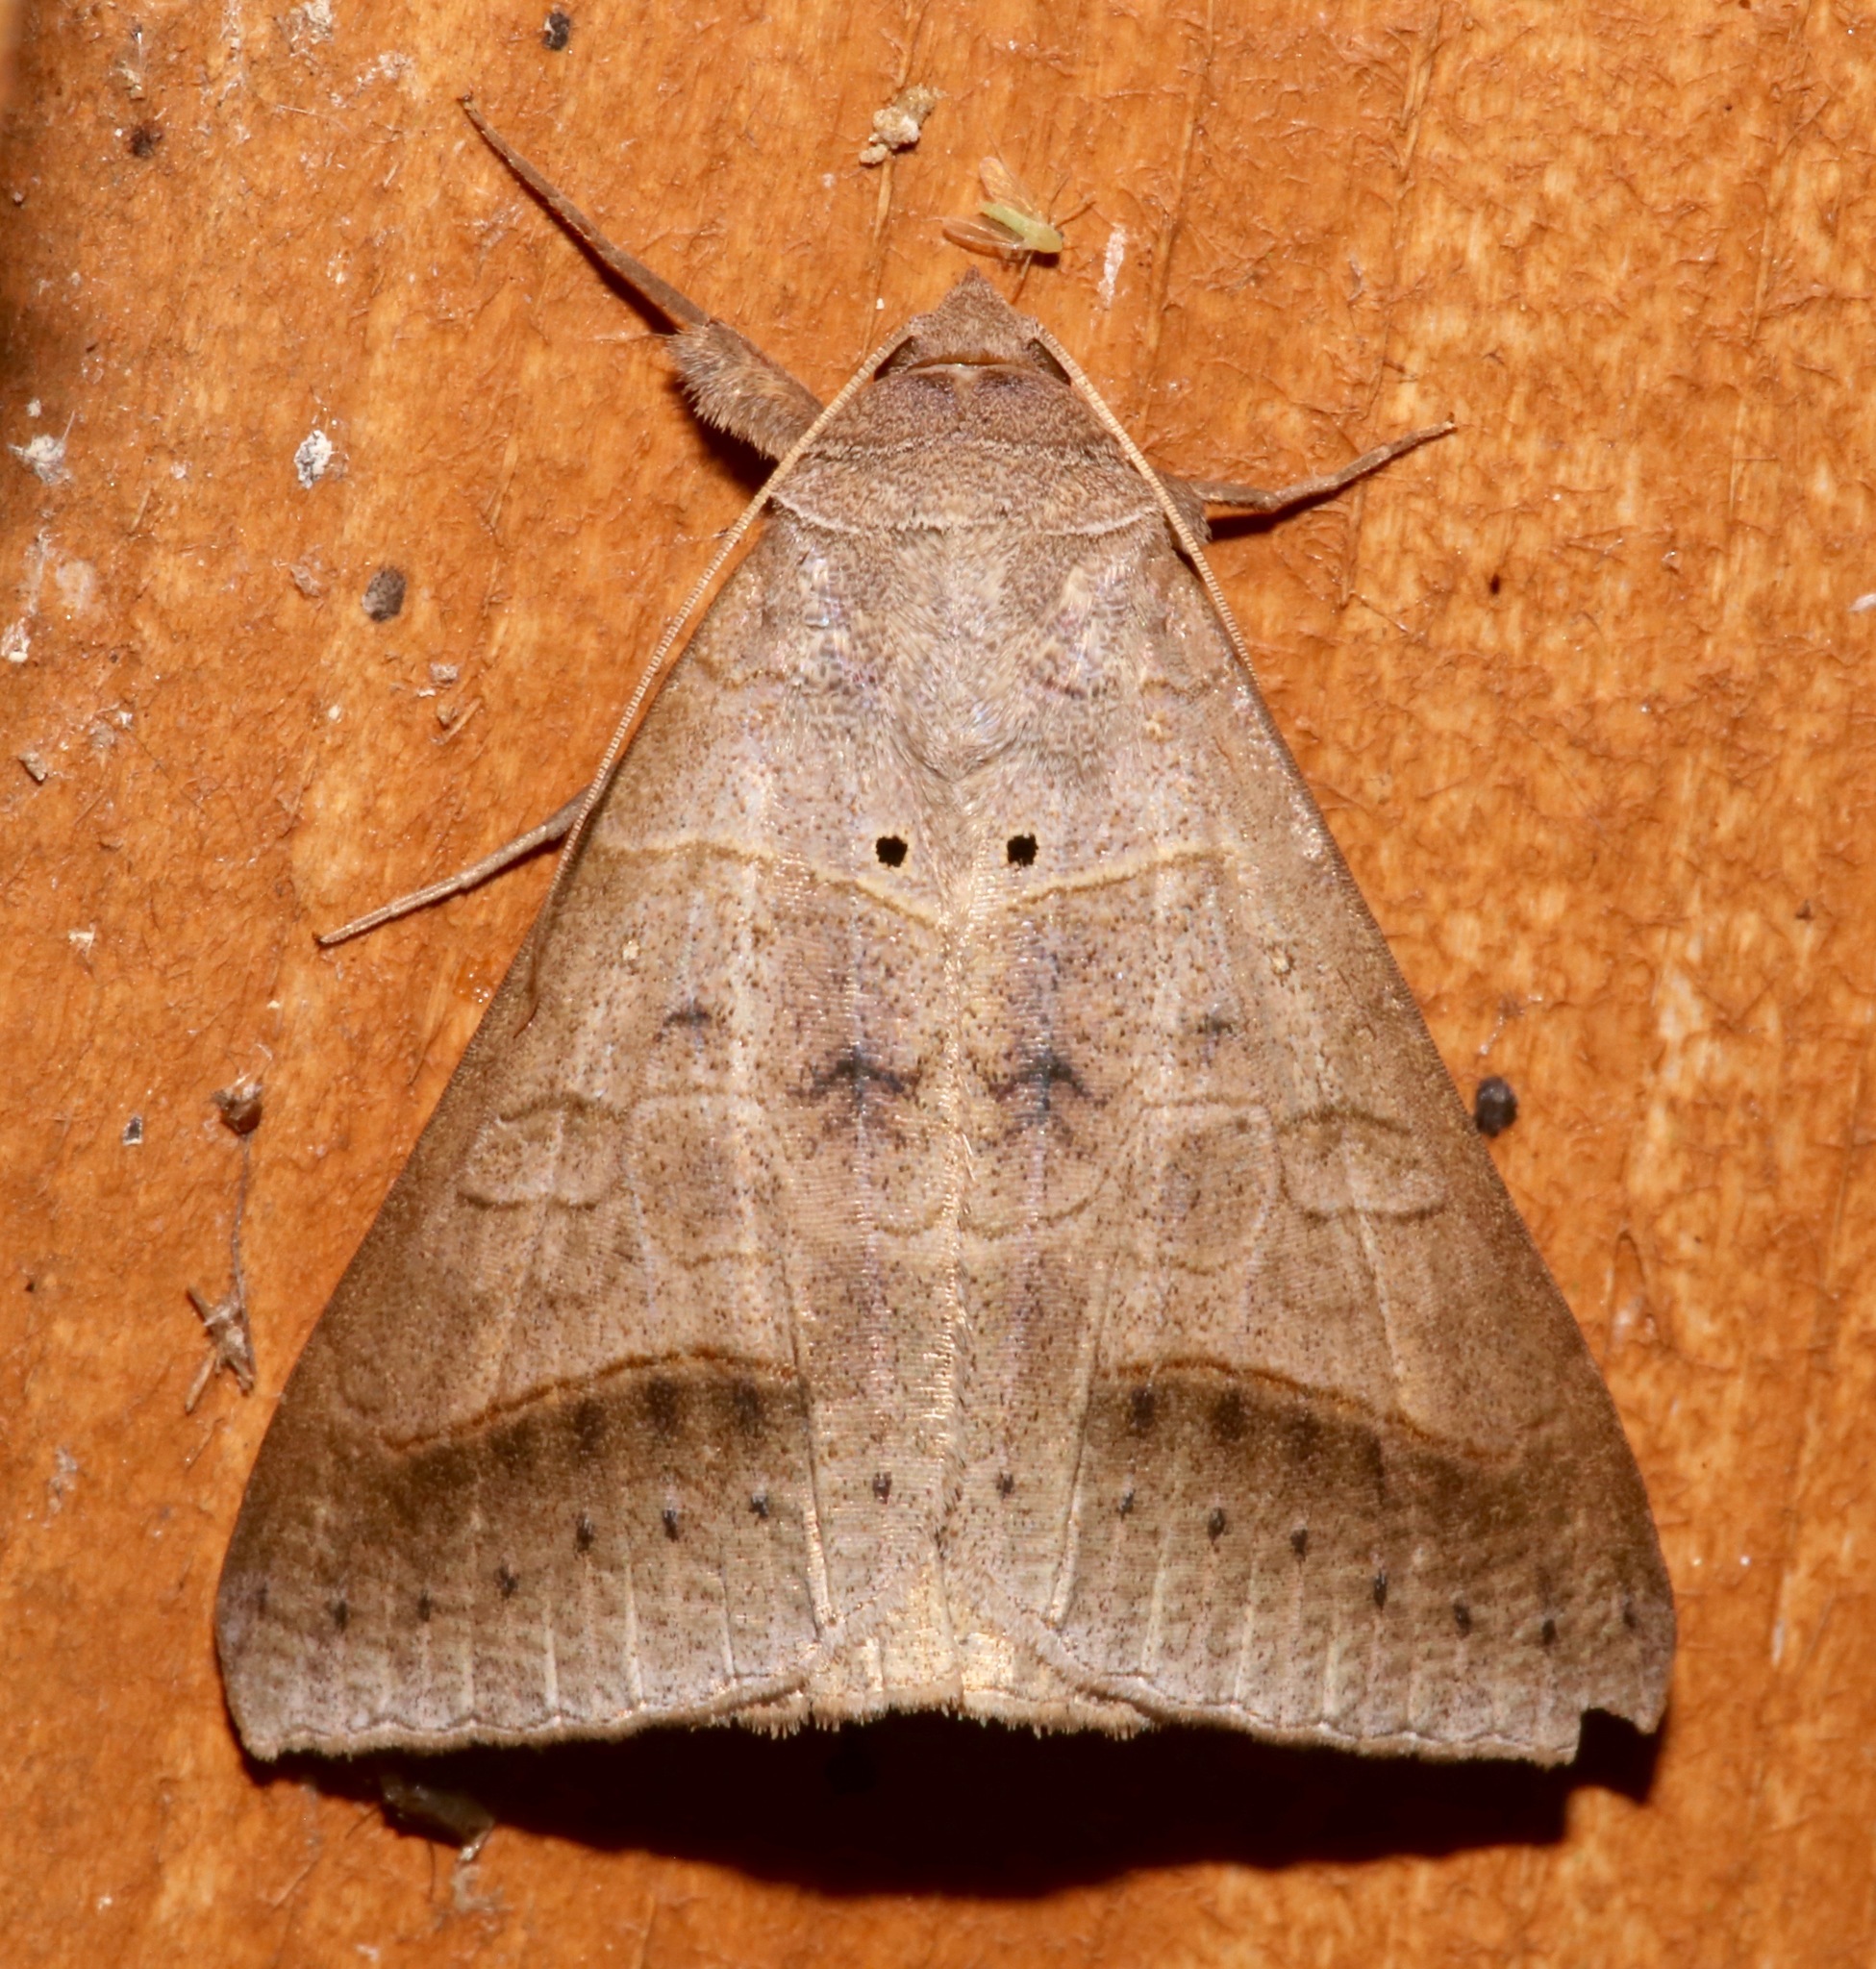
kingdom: Animalia
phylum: Arthropoda
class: Insecta
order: Lepidoptera
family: Erebidae
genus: Mocis
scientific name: Mocis marcida
